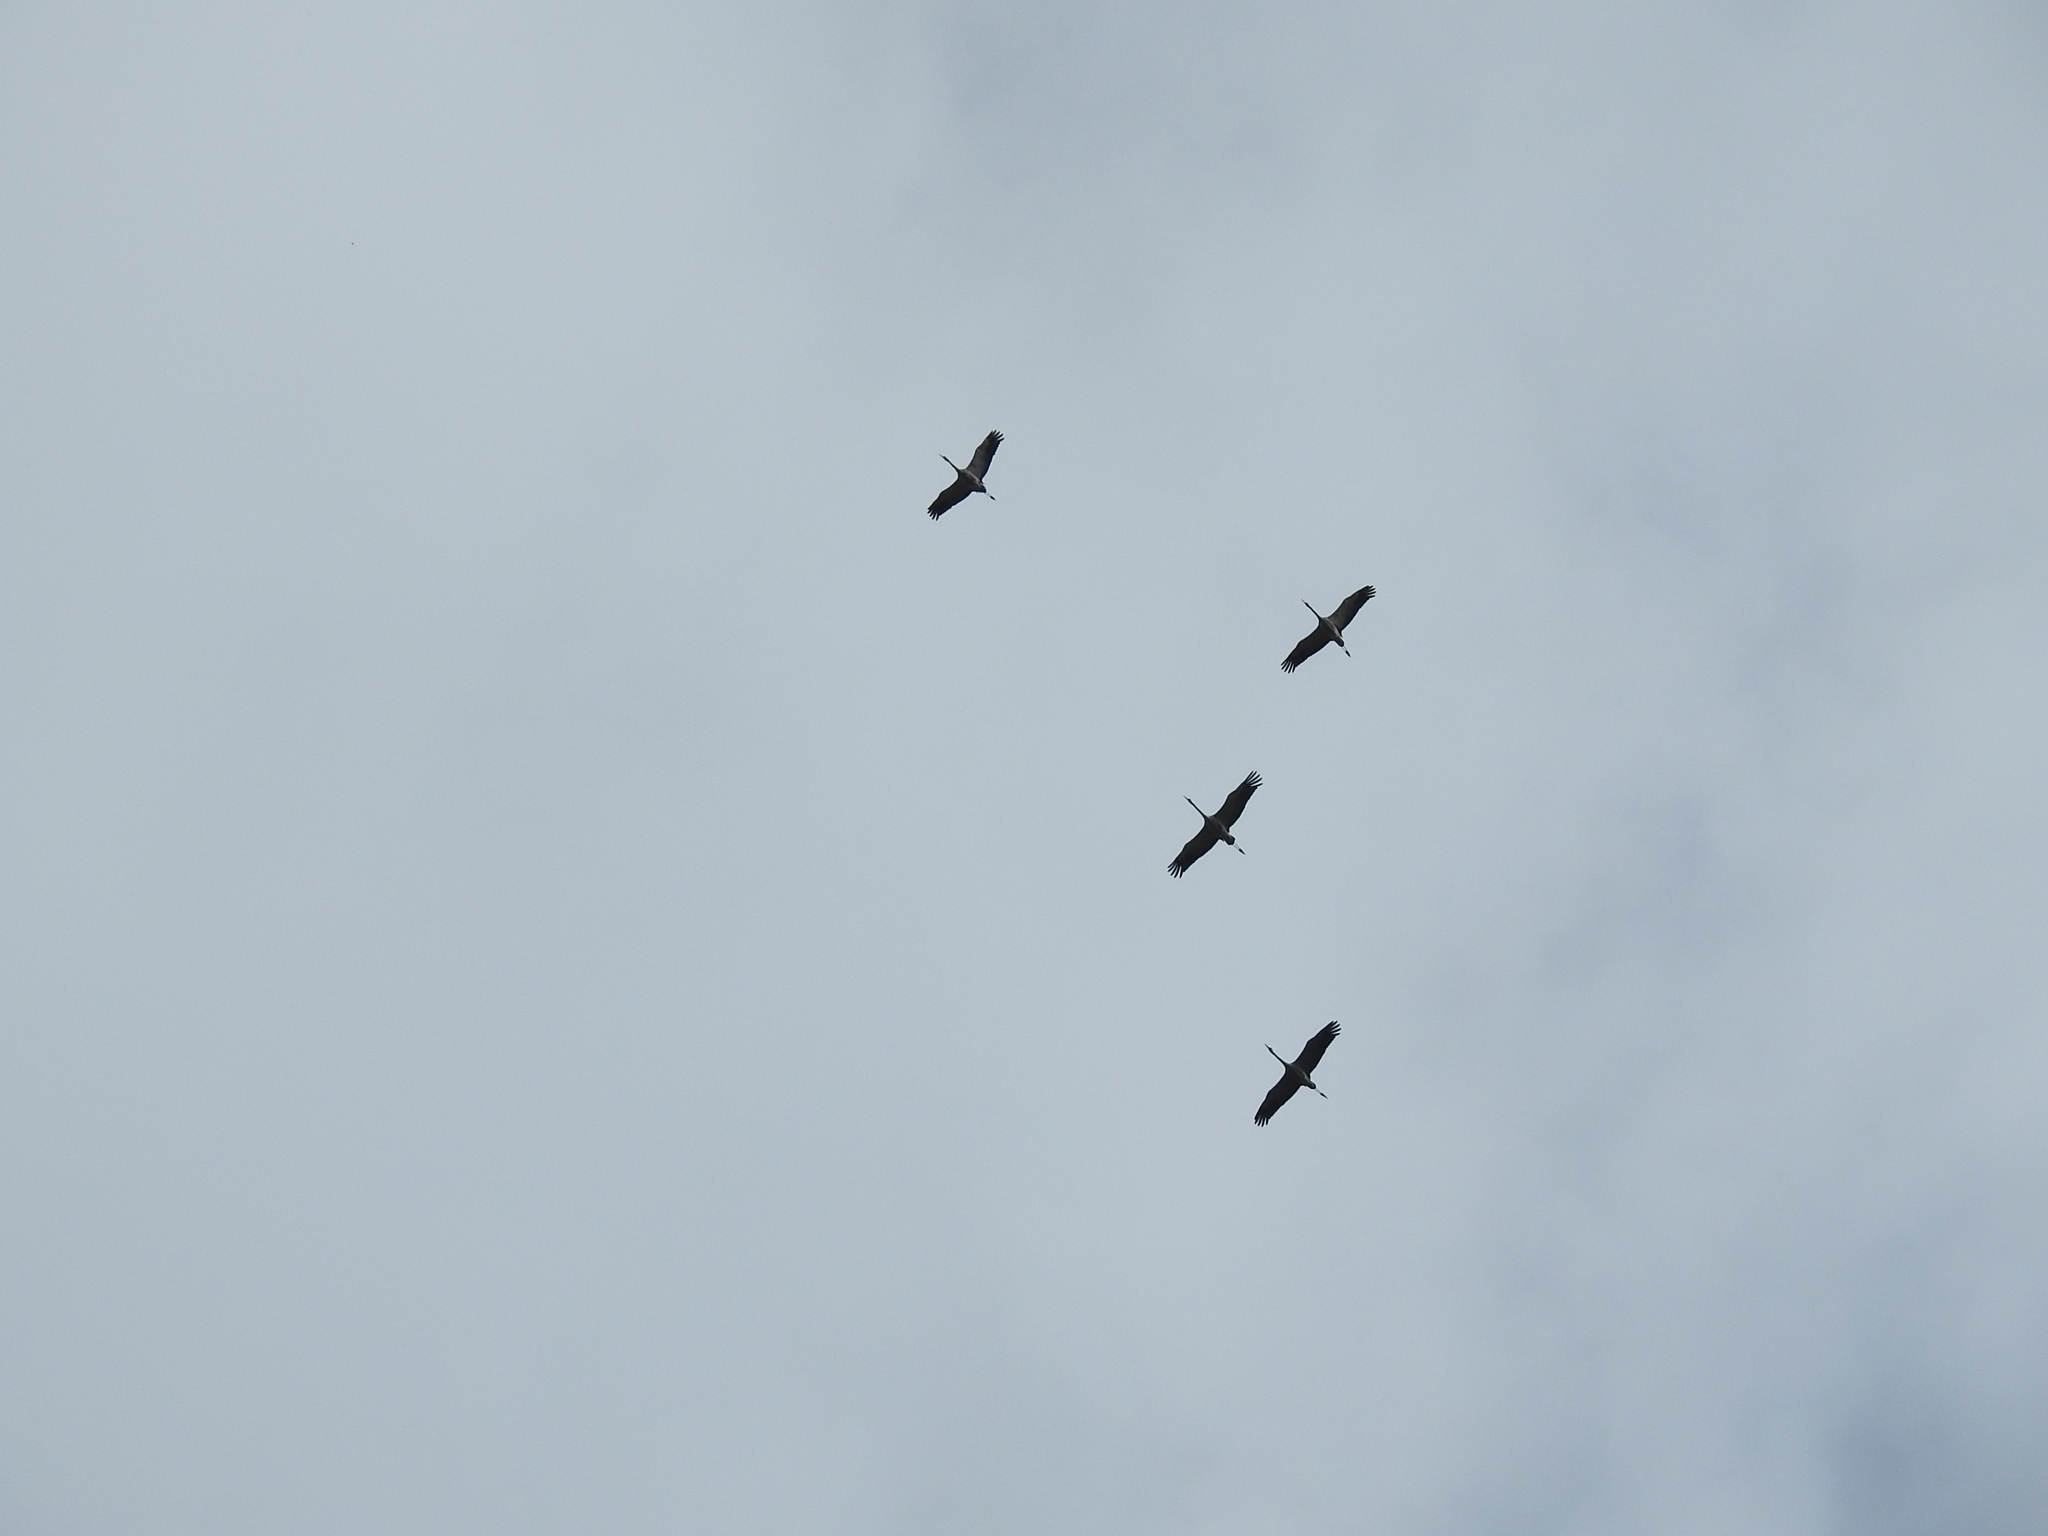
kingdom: Animalia
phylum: Chordata
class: Aves
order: Gruiformes
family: Gruidae
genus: Grus
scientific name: Grus grus
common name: Common crane
